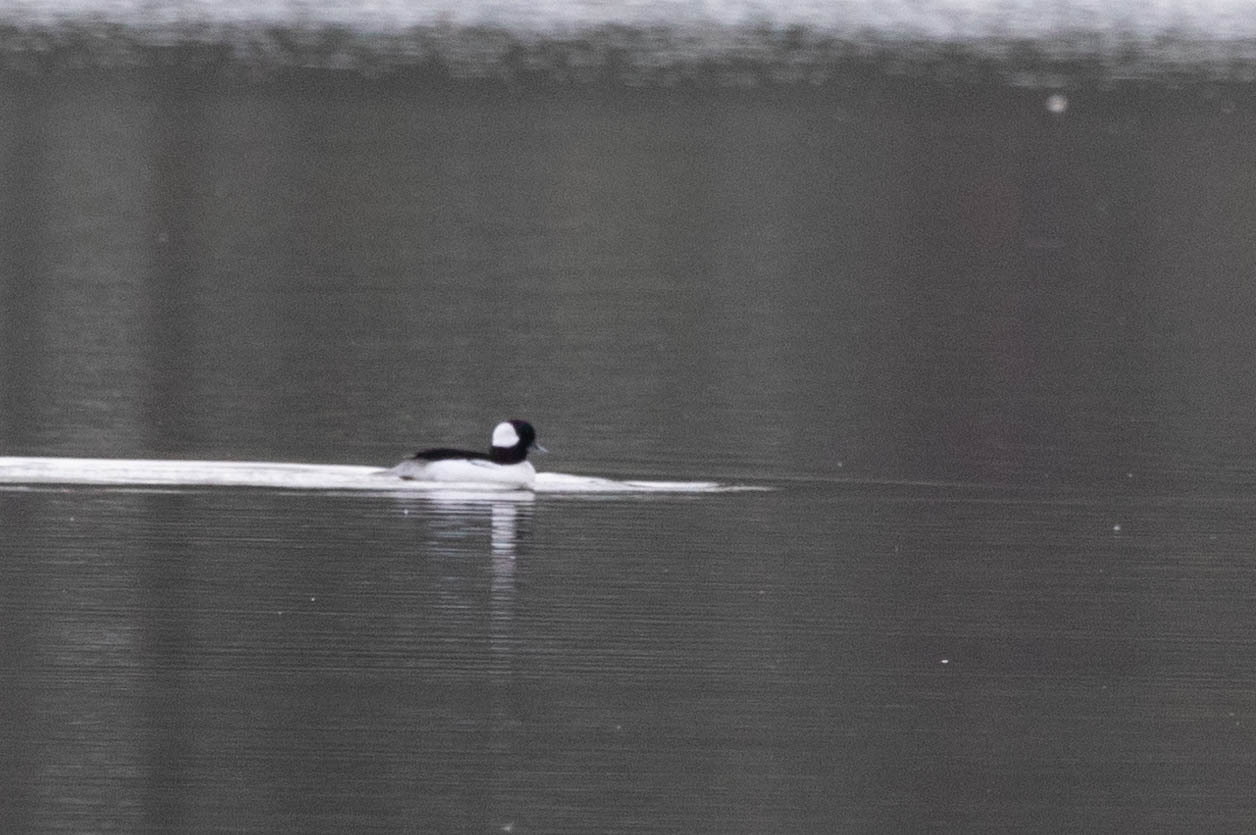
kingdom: Animalia
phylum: Chordata
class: Aves
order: Anseriformes
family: Anatidae
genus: Bucephala
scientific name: Bucephala albeola
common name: Bufflehead
